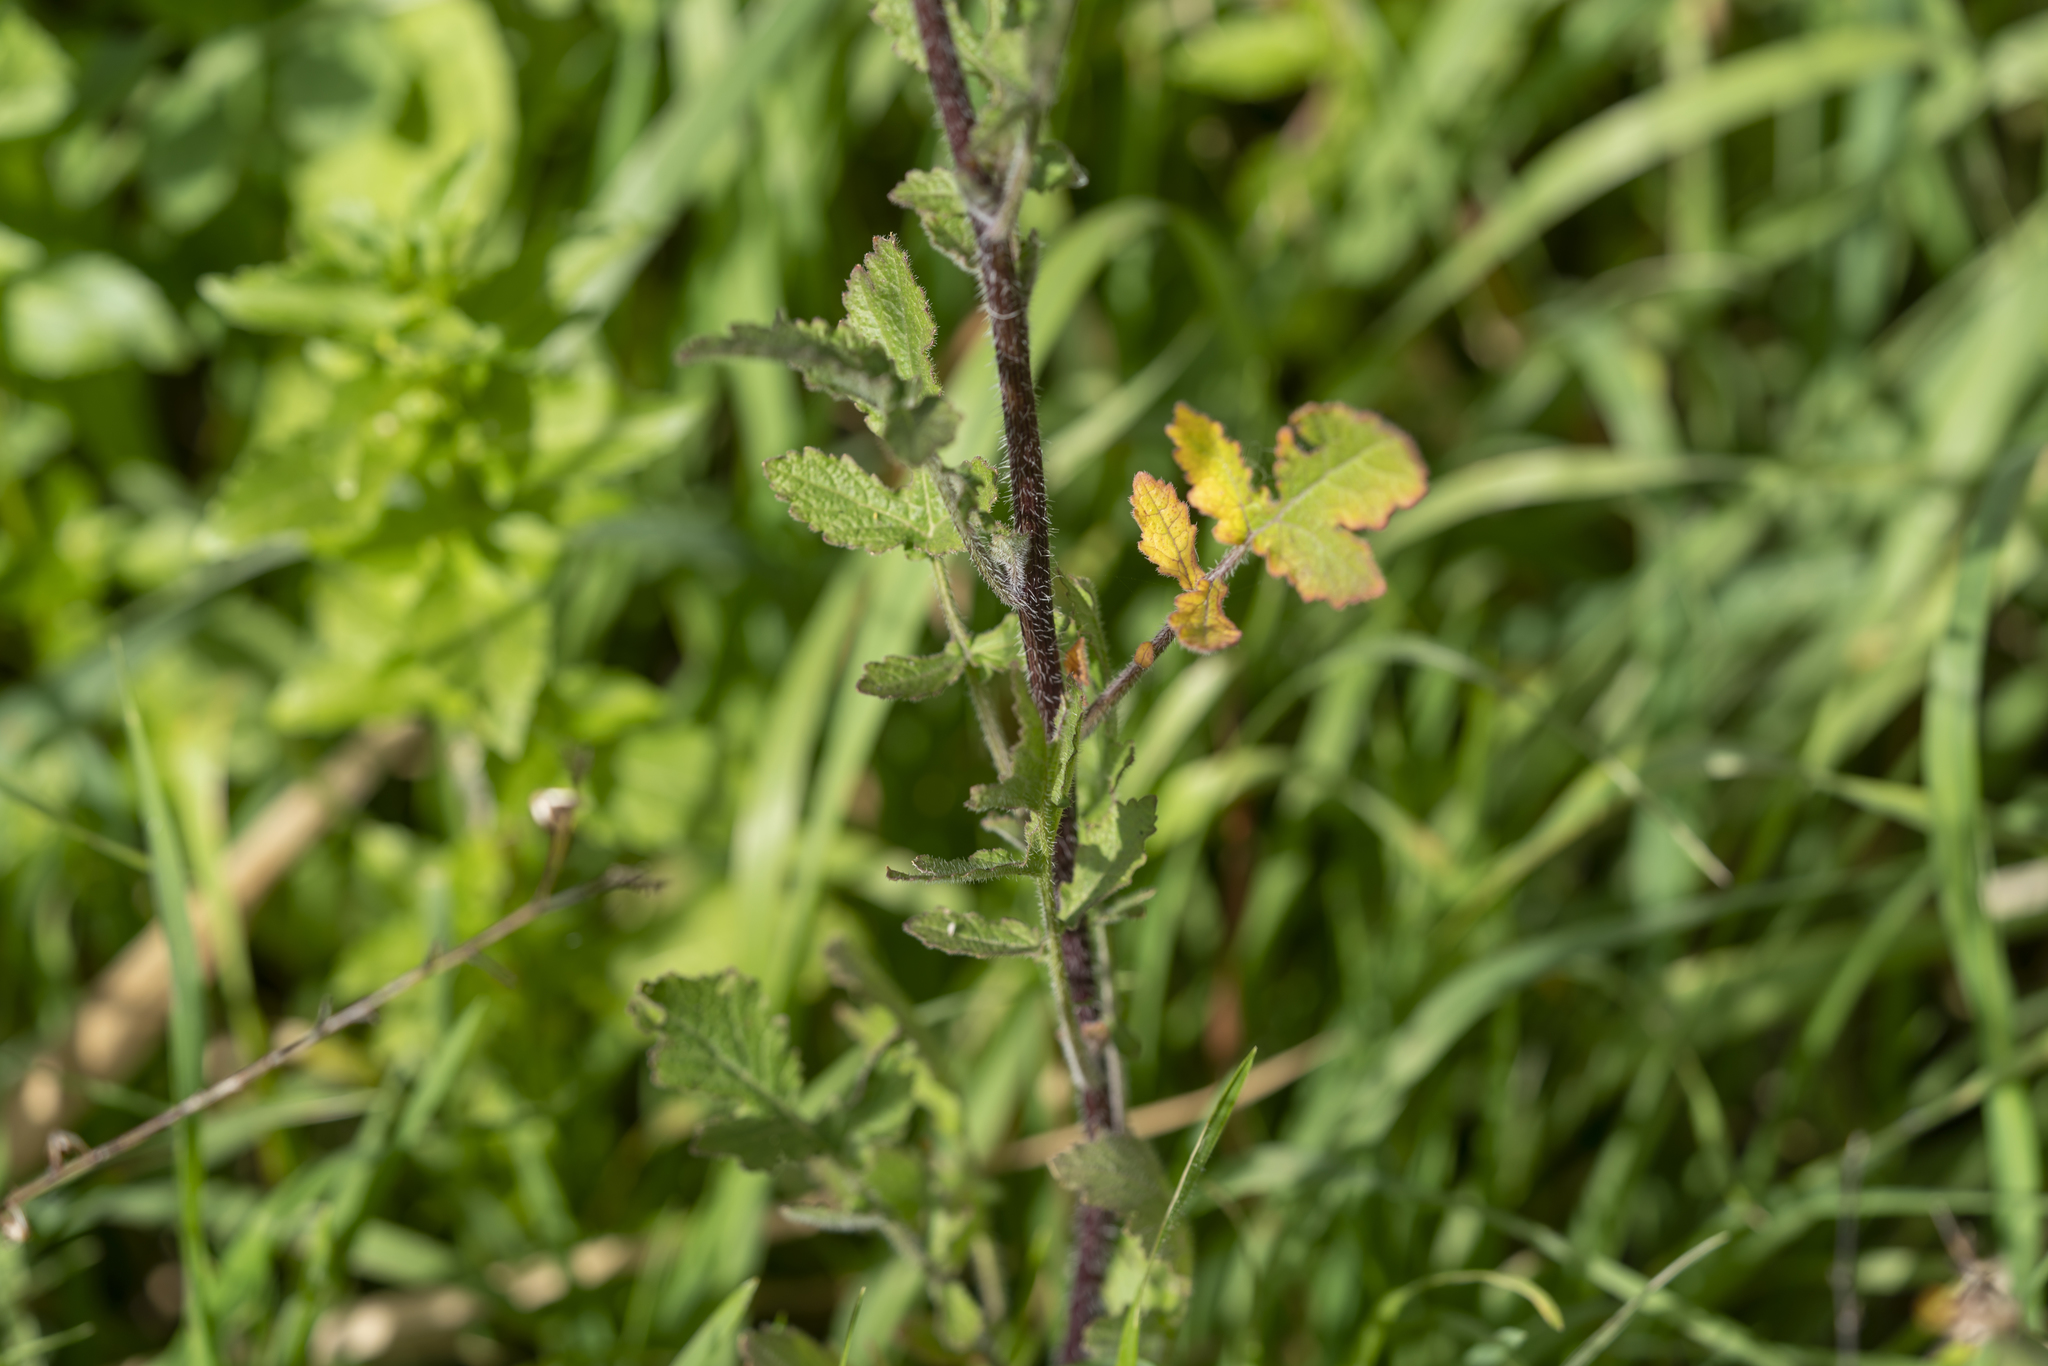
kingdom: Plantae
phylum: Tracheophyta
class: Magnoliopsida
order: Brassicales
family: Brassicaceae
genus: Sinapis
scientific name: Sinapis alba
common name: White mustard
